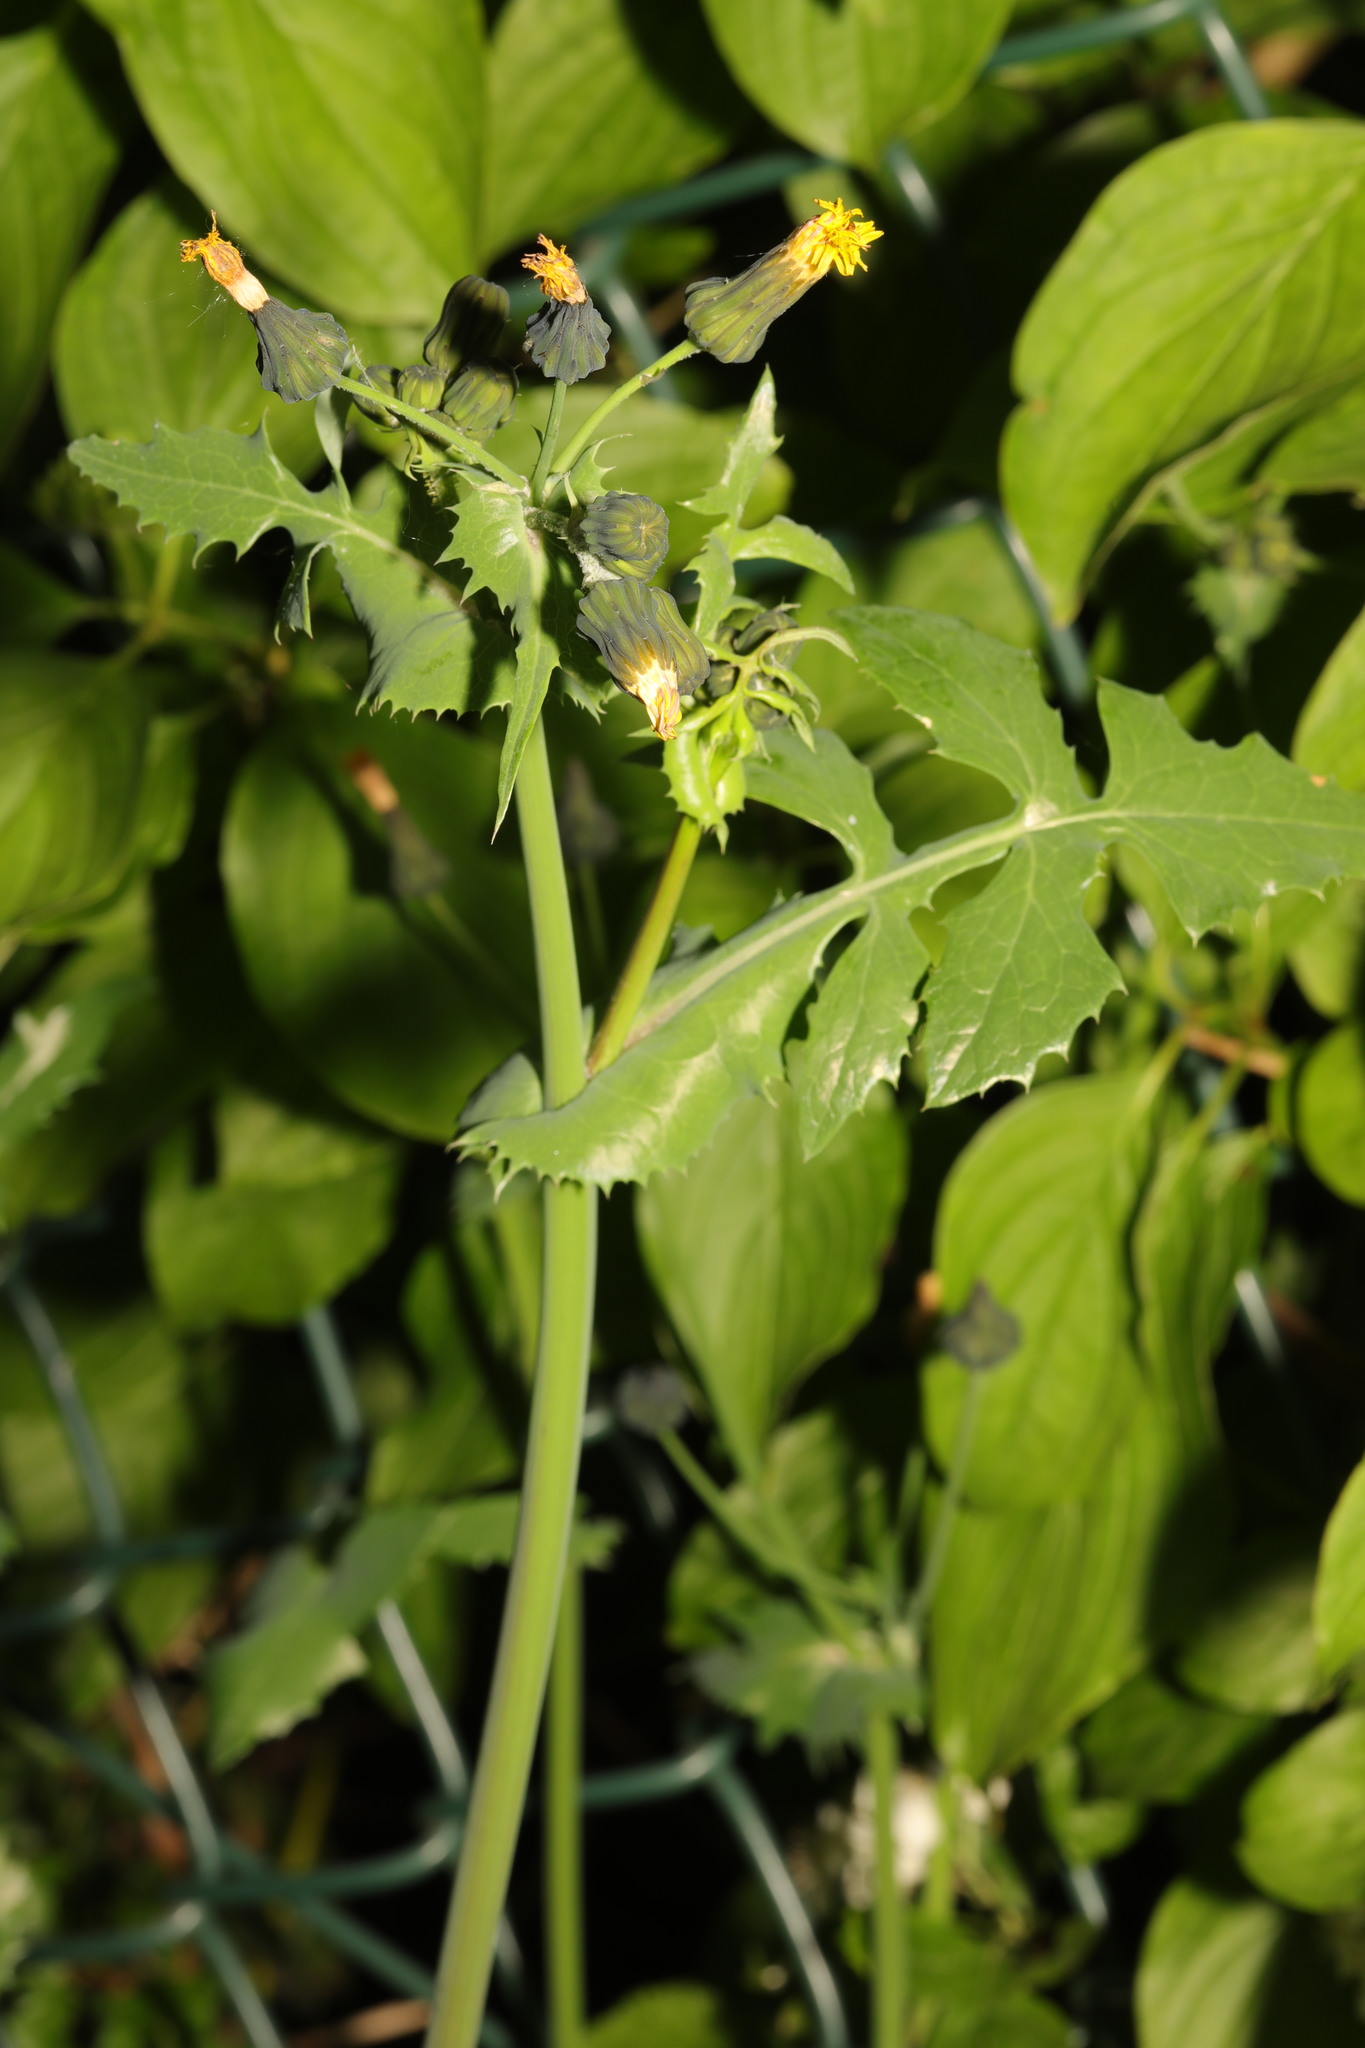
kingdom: Plantae
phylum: Tracheophyta
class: Magnoliopsida
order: Asterales
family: Asteraceae
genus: Sonchus
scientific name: Sonchus oleraceus
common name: Common sowthistle
